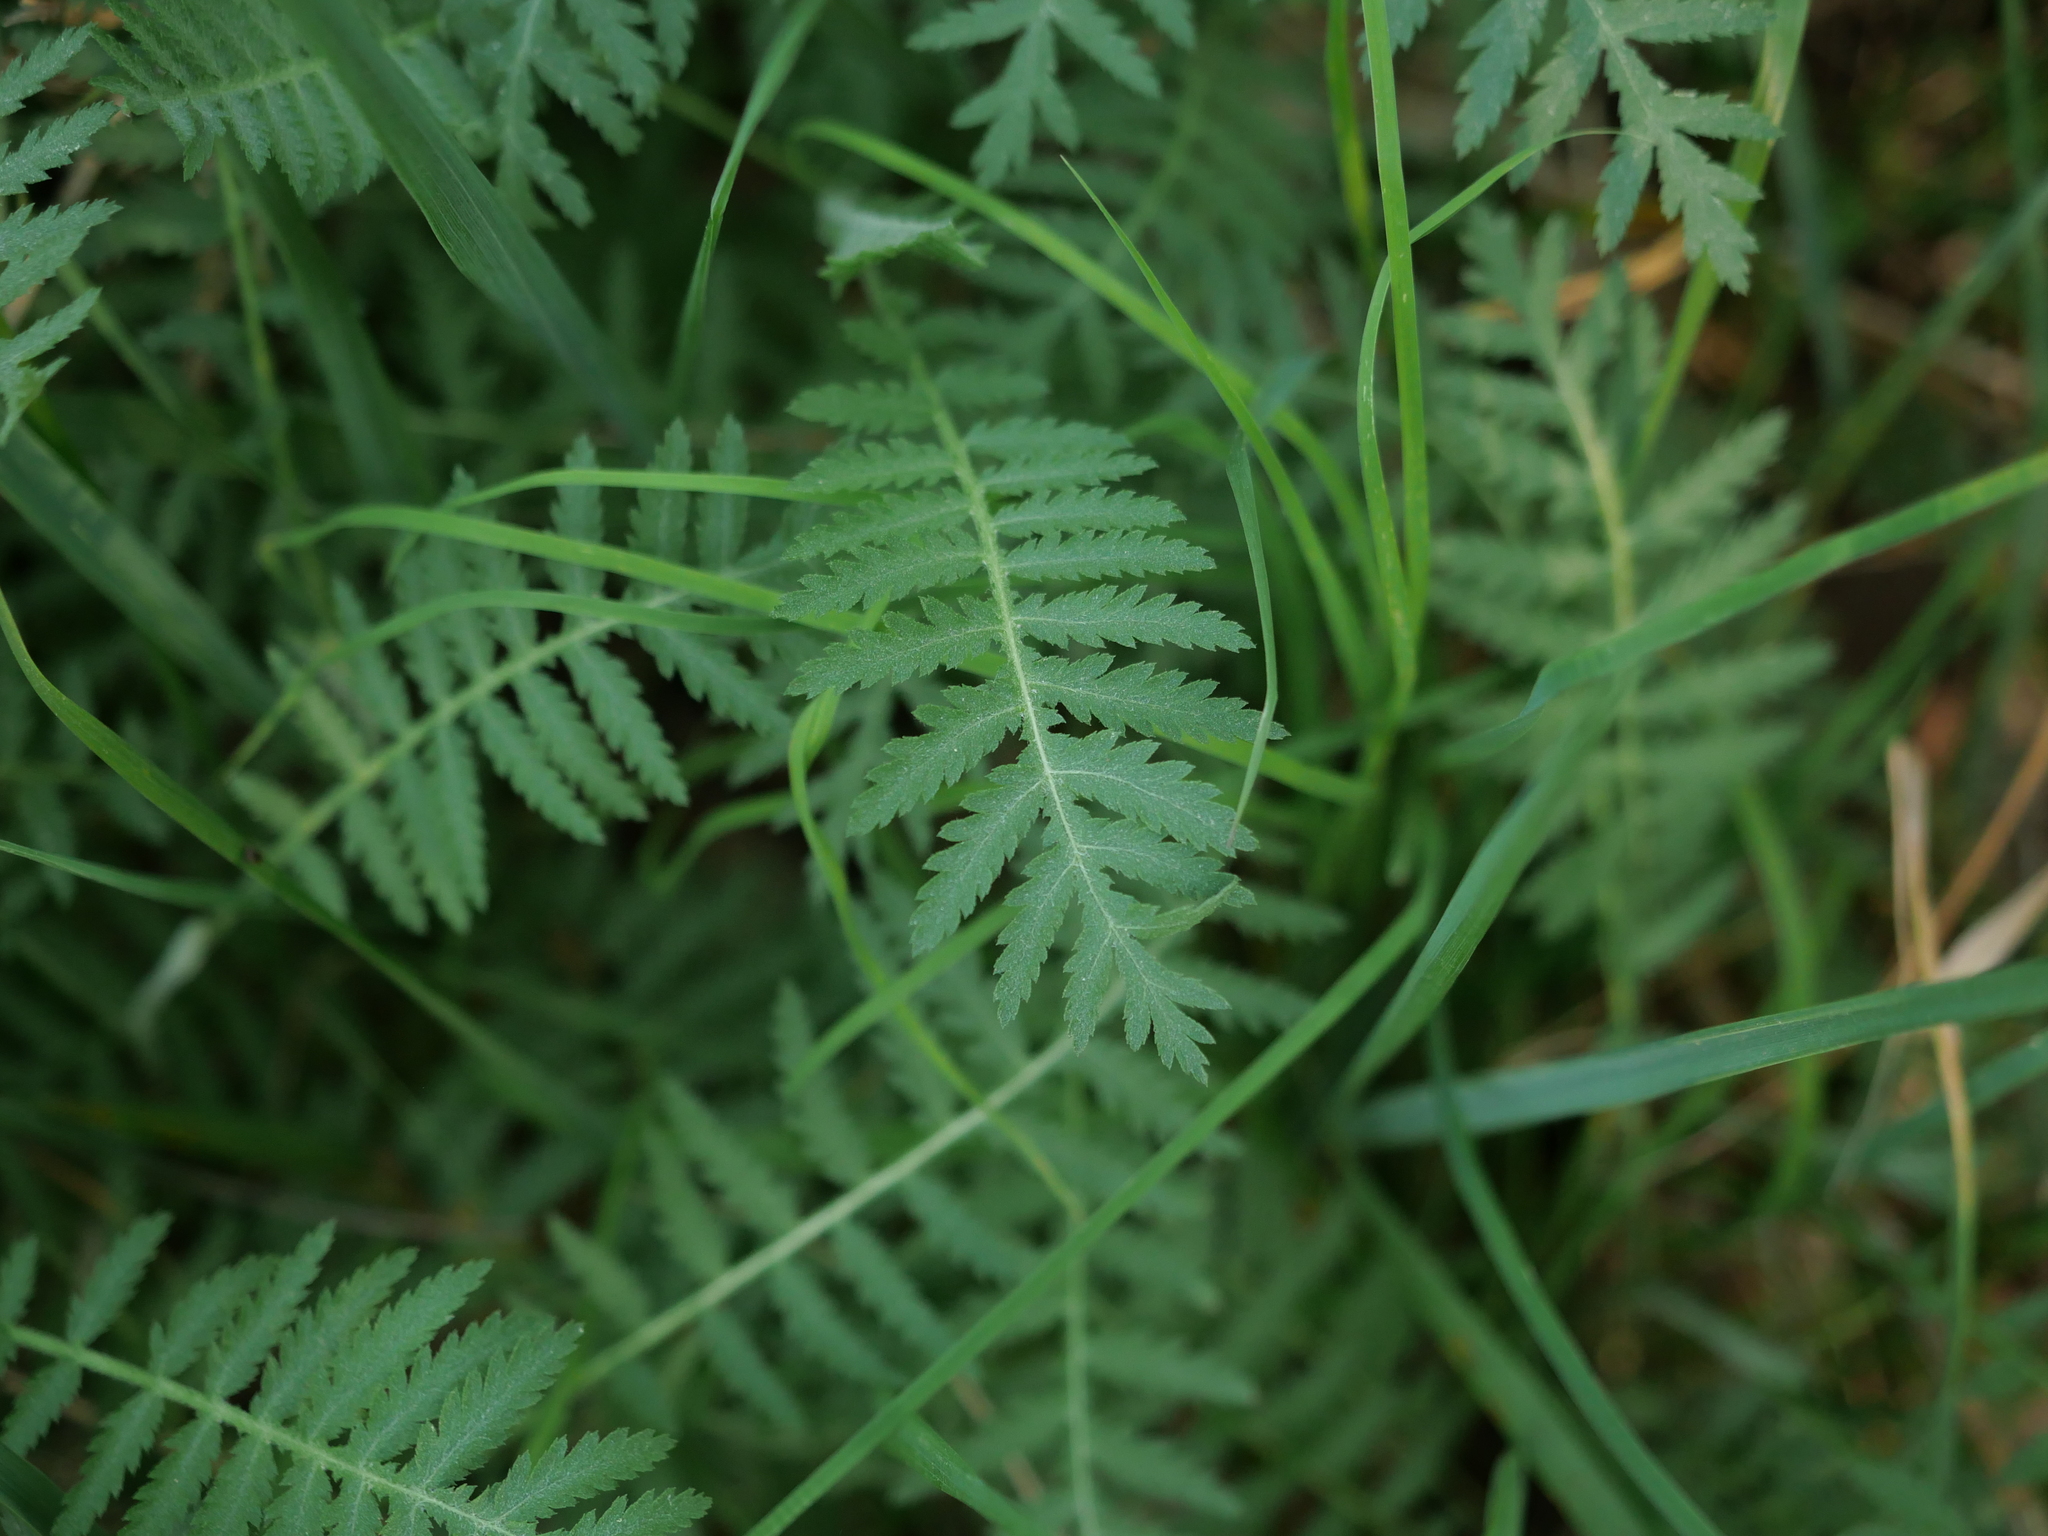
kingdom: Plantae
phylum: Tracheophyta
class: Magnoliopsida
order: Asterales
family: Asteraceae
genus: Tanacetum
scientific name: Tanacetum vulgare
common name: Common tansy
